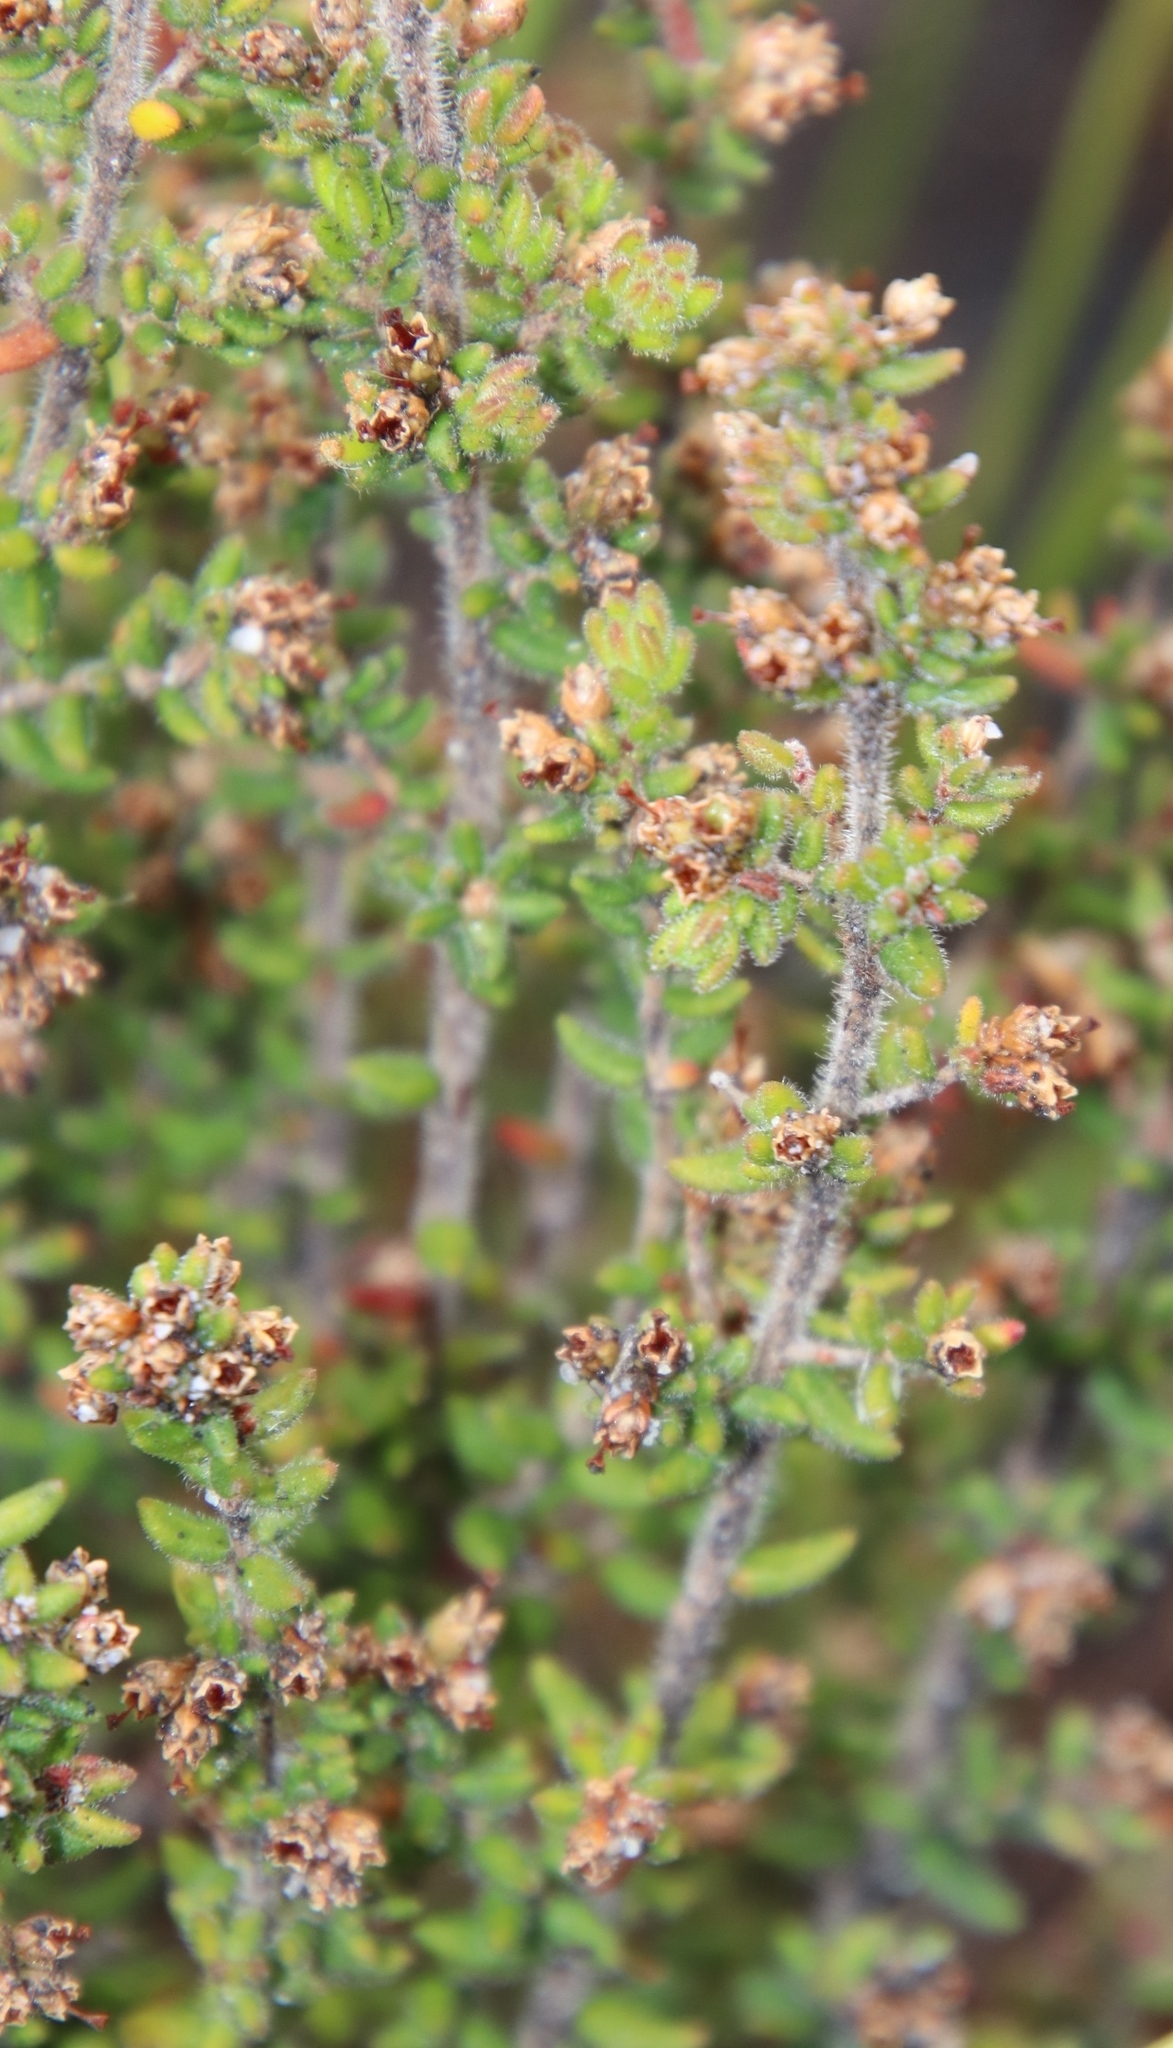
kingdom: Plantae
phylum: Tracheophyta
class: Magnoliopsida
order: Ericales
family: Ericaceae
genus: Erica
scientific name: Erica hispidula
